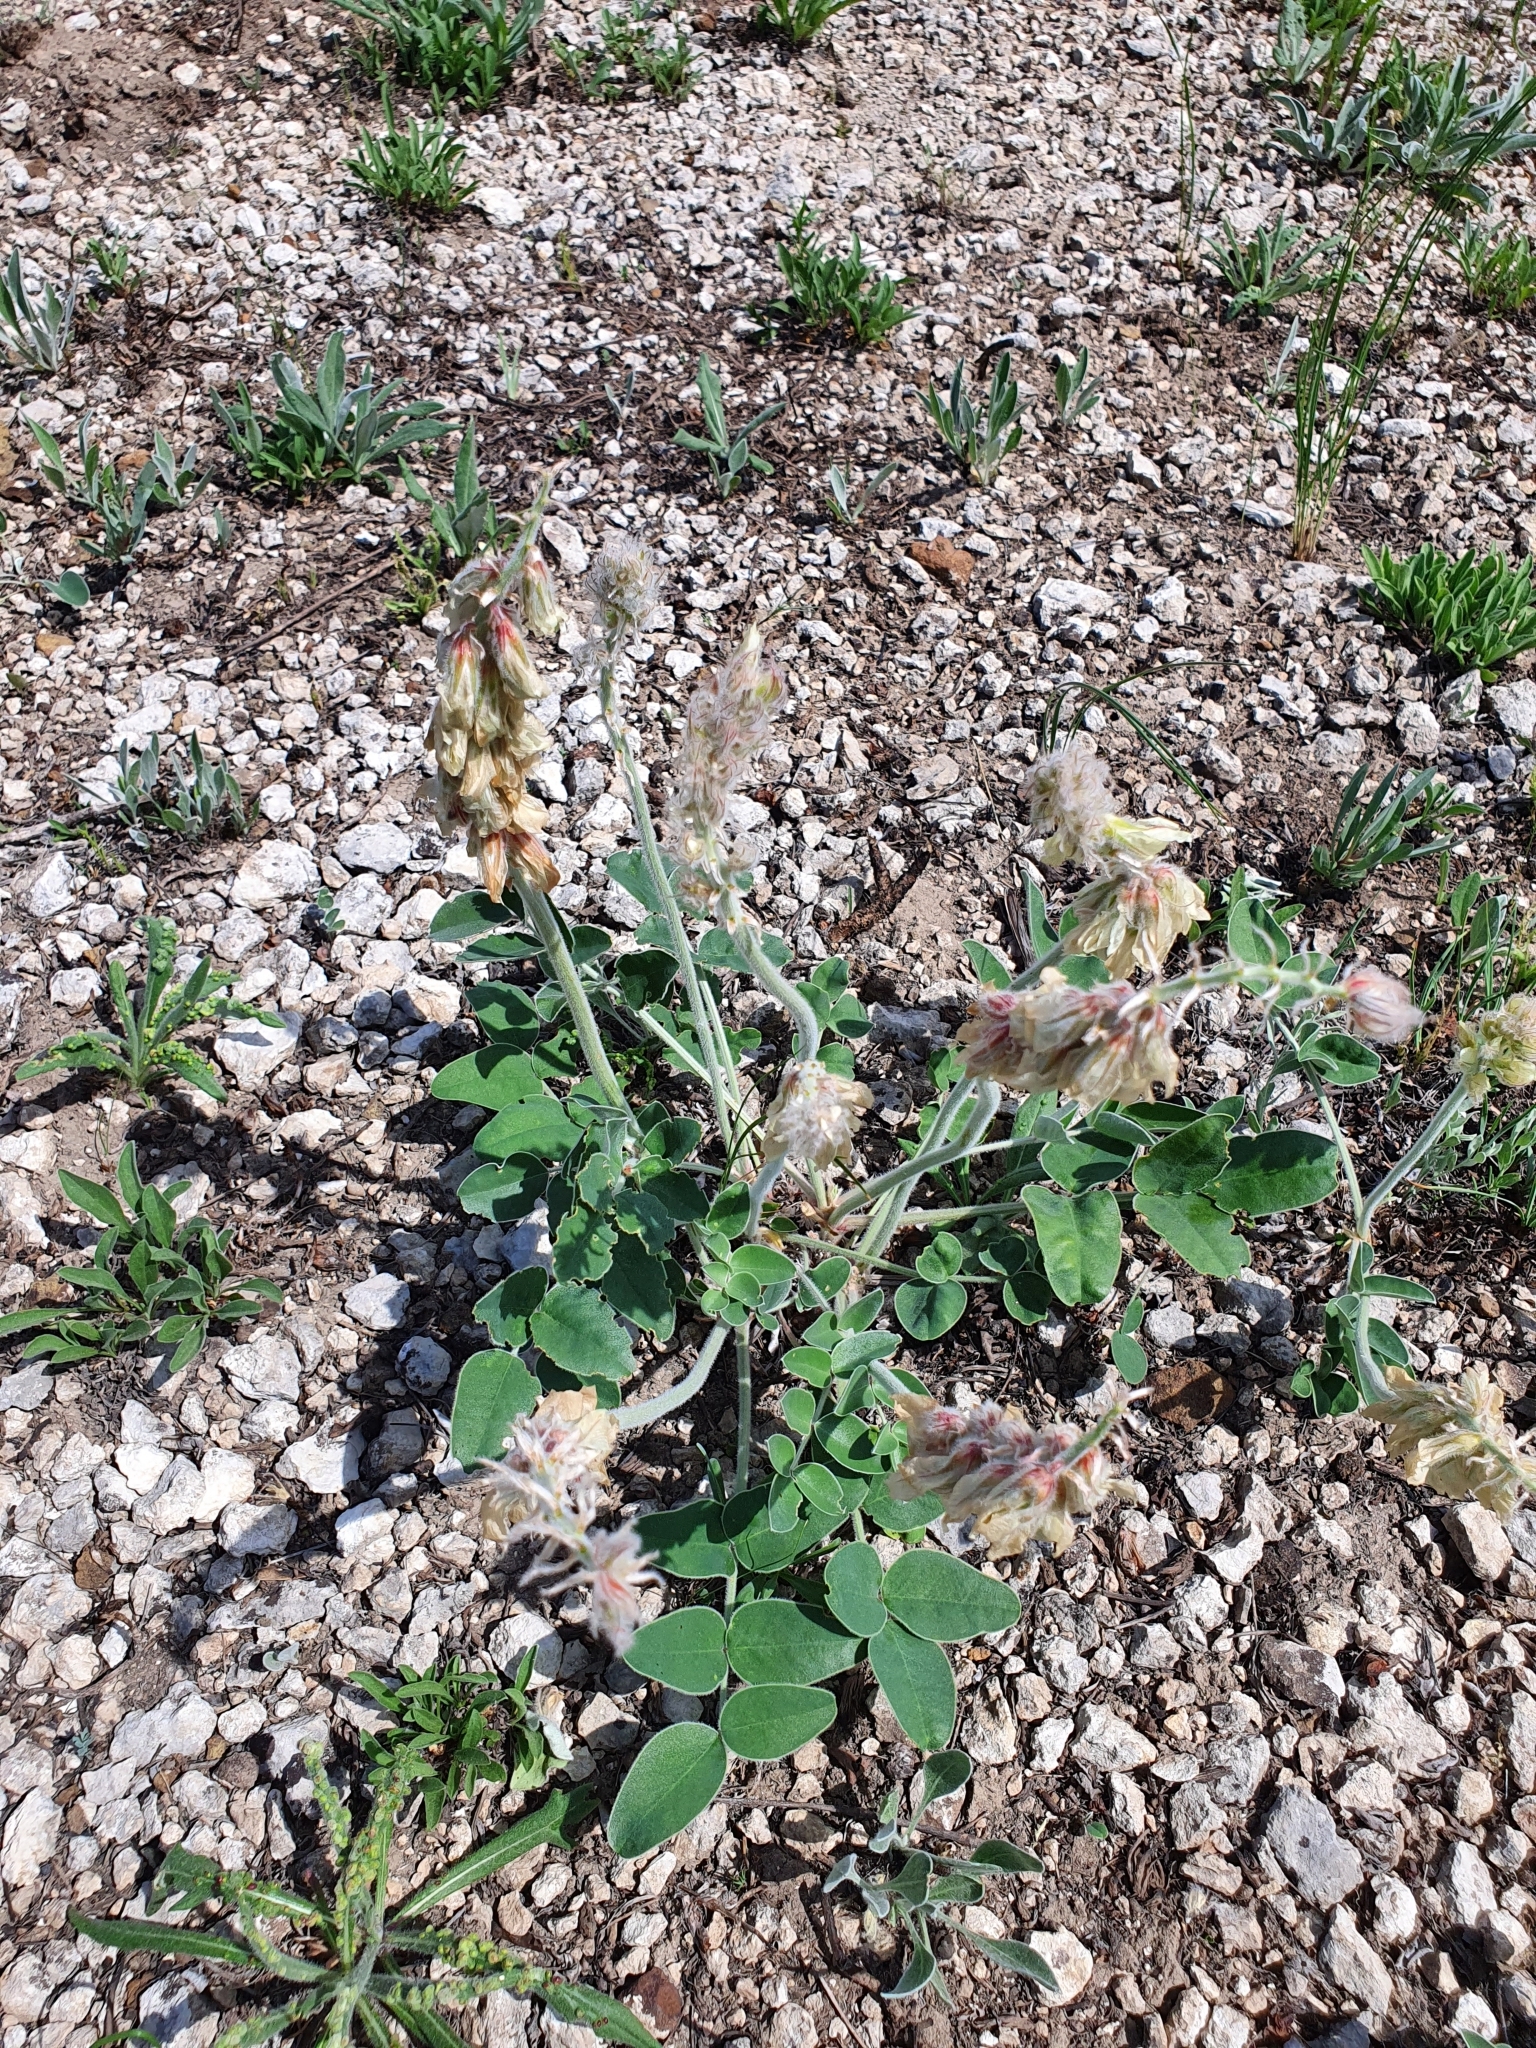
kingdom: Plantae
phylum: Tracheophyta
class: Magnoliopsida
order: Fabales
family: Fabaceae
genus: Hedysarum
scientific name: Hedysarum grandiflorum
